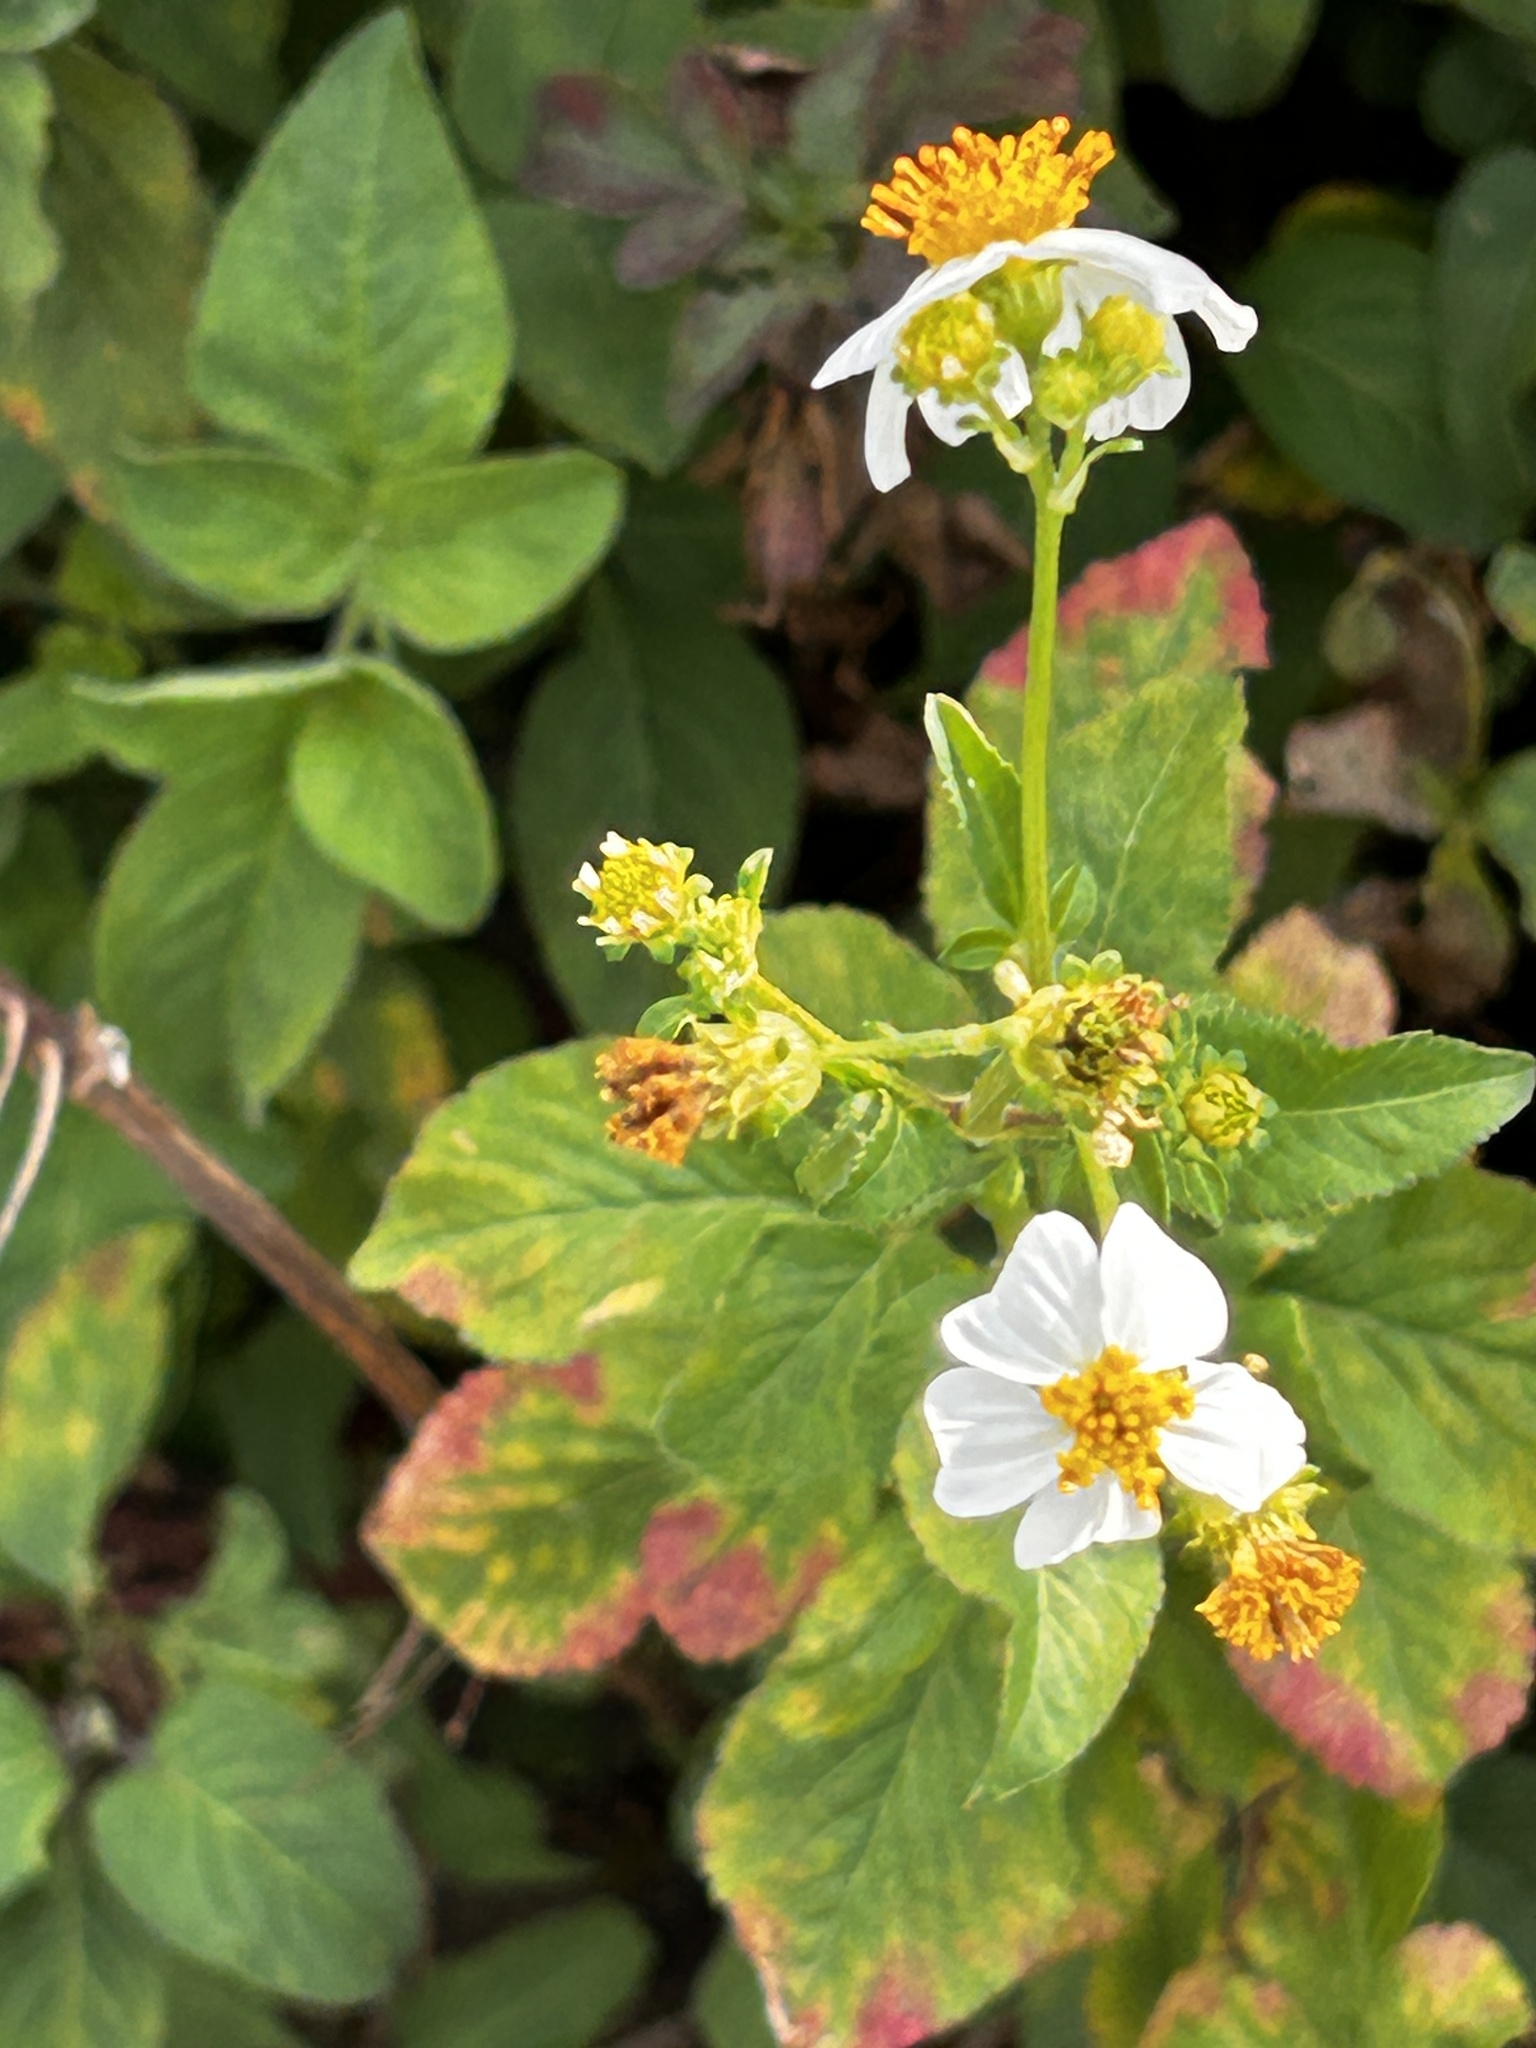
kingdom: Plantae
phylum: Tracheophyta
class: Magnoliopsida
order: Asterales
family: Asteraceae
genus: Bidens
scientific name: Bidens alba
